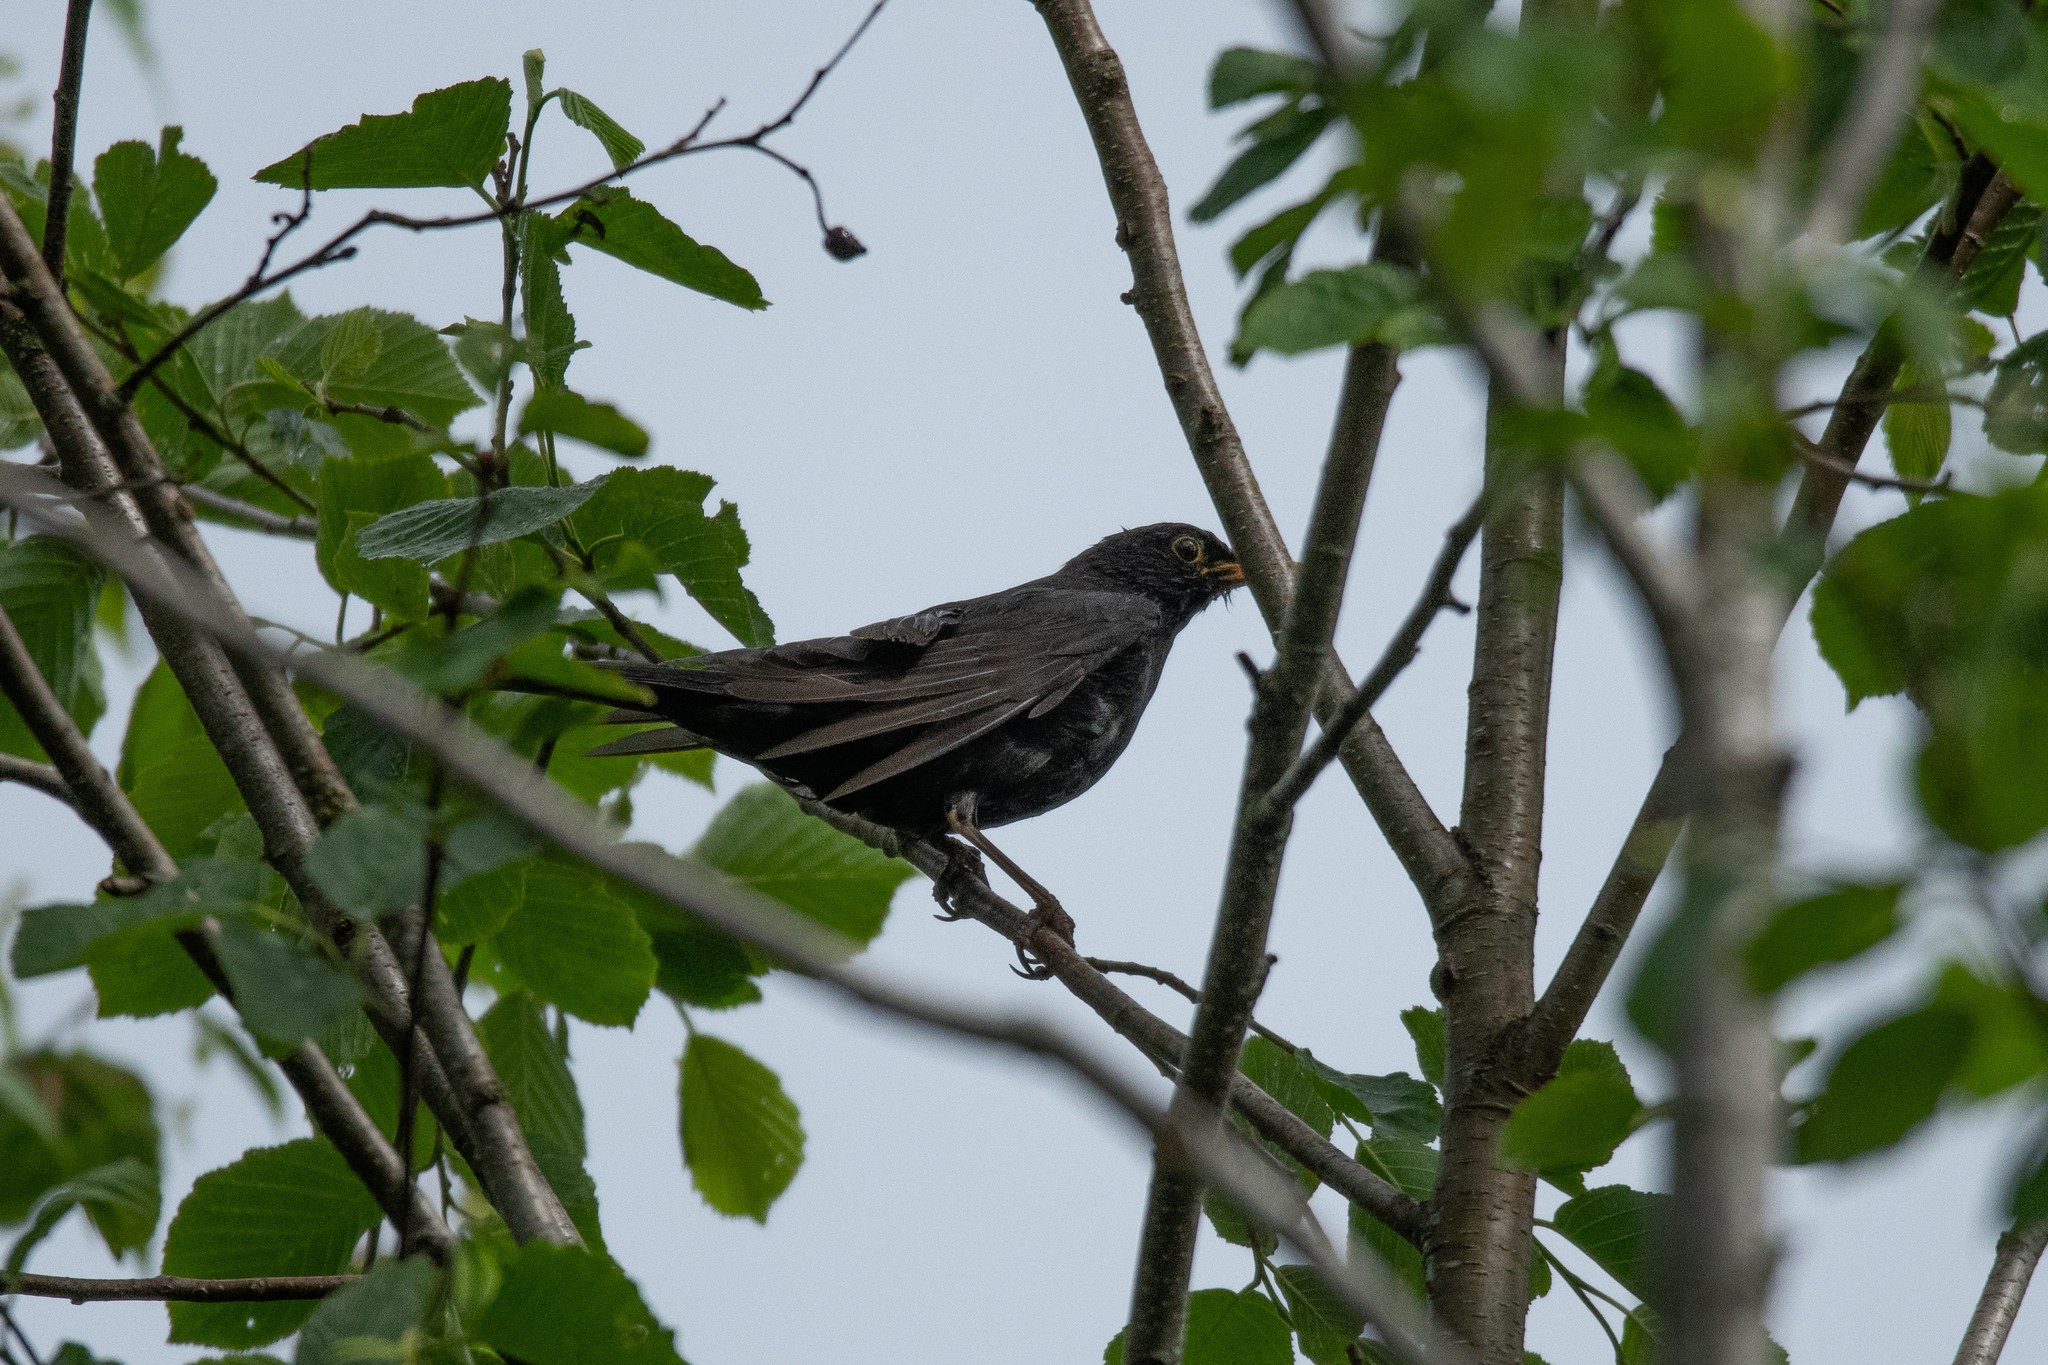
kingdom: Animalia
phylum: Chordata
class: Aves
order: Passeriformes
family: Turdidae
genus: Turdus
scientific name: Turdus merula
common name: Common blackbird
